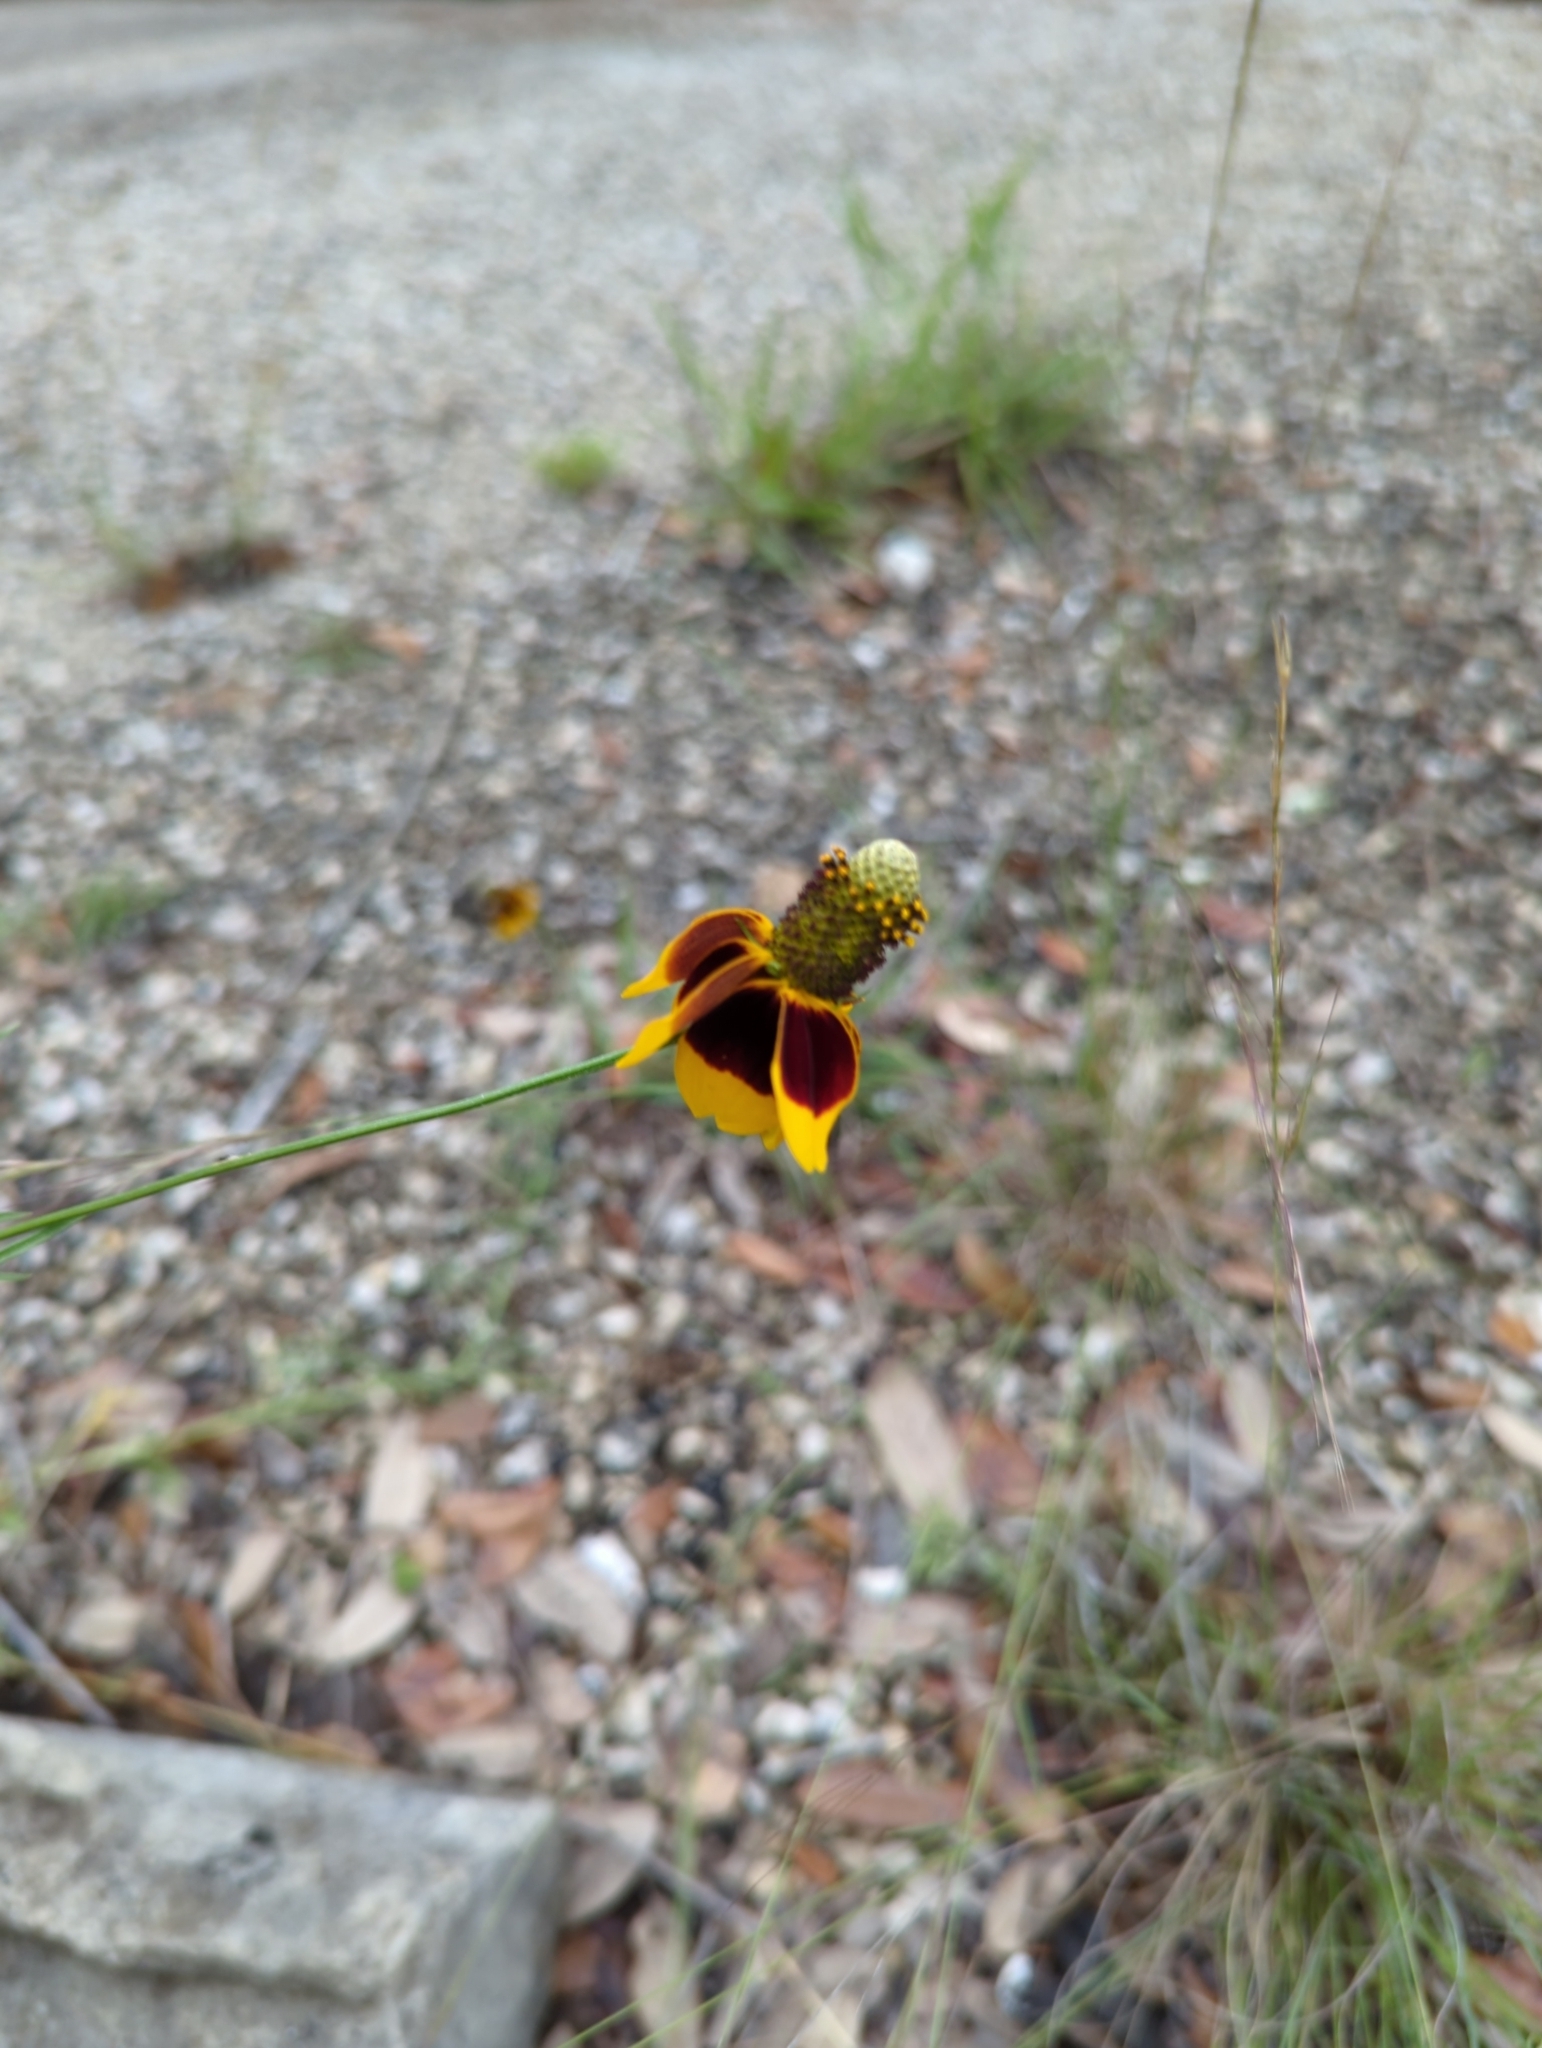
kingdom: Plantae
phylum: Tracheophyta
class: Magnoliopsida
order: Asterales
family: Asteraceae
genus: Ratibida
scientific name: Ratibida columnifera
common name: Prairie coneflower
